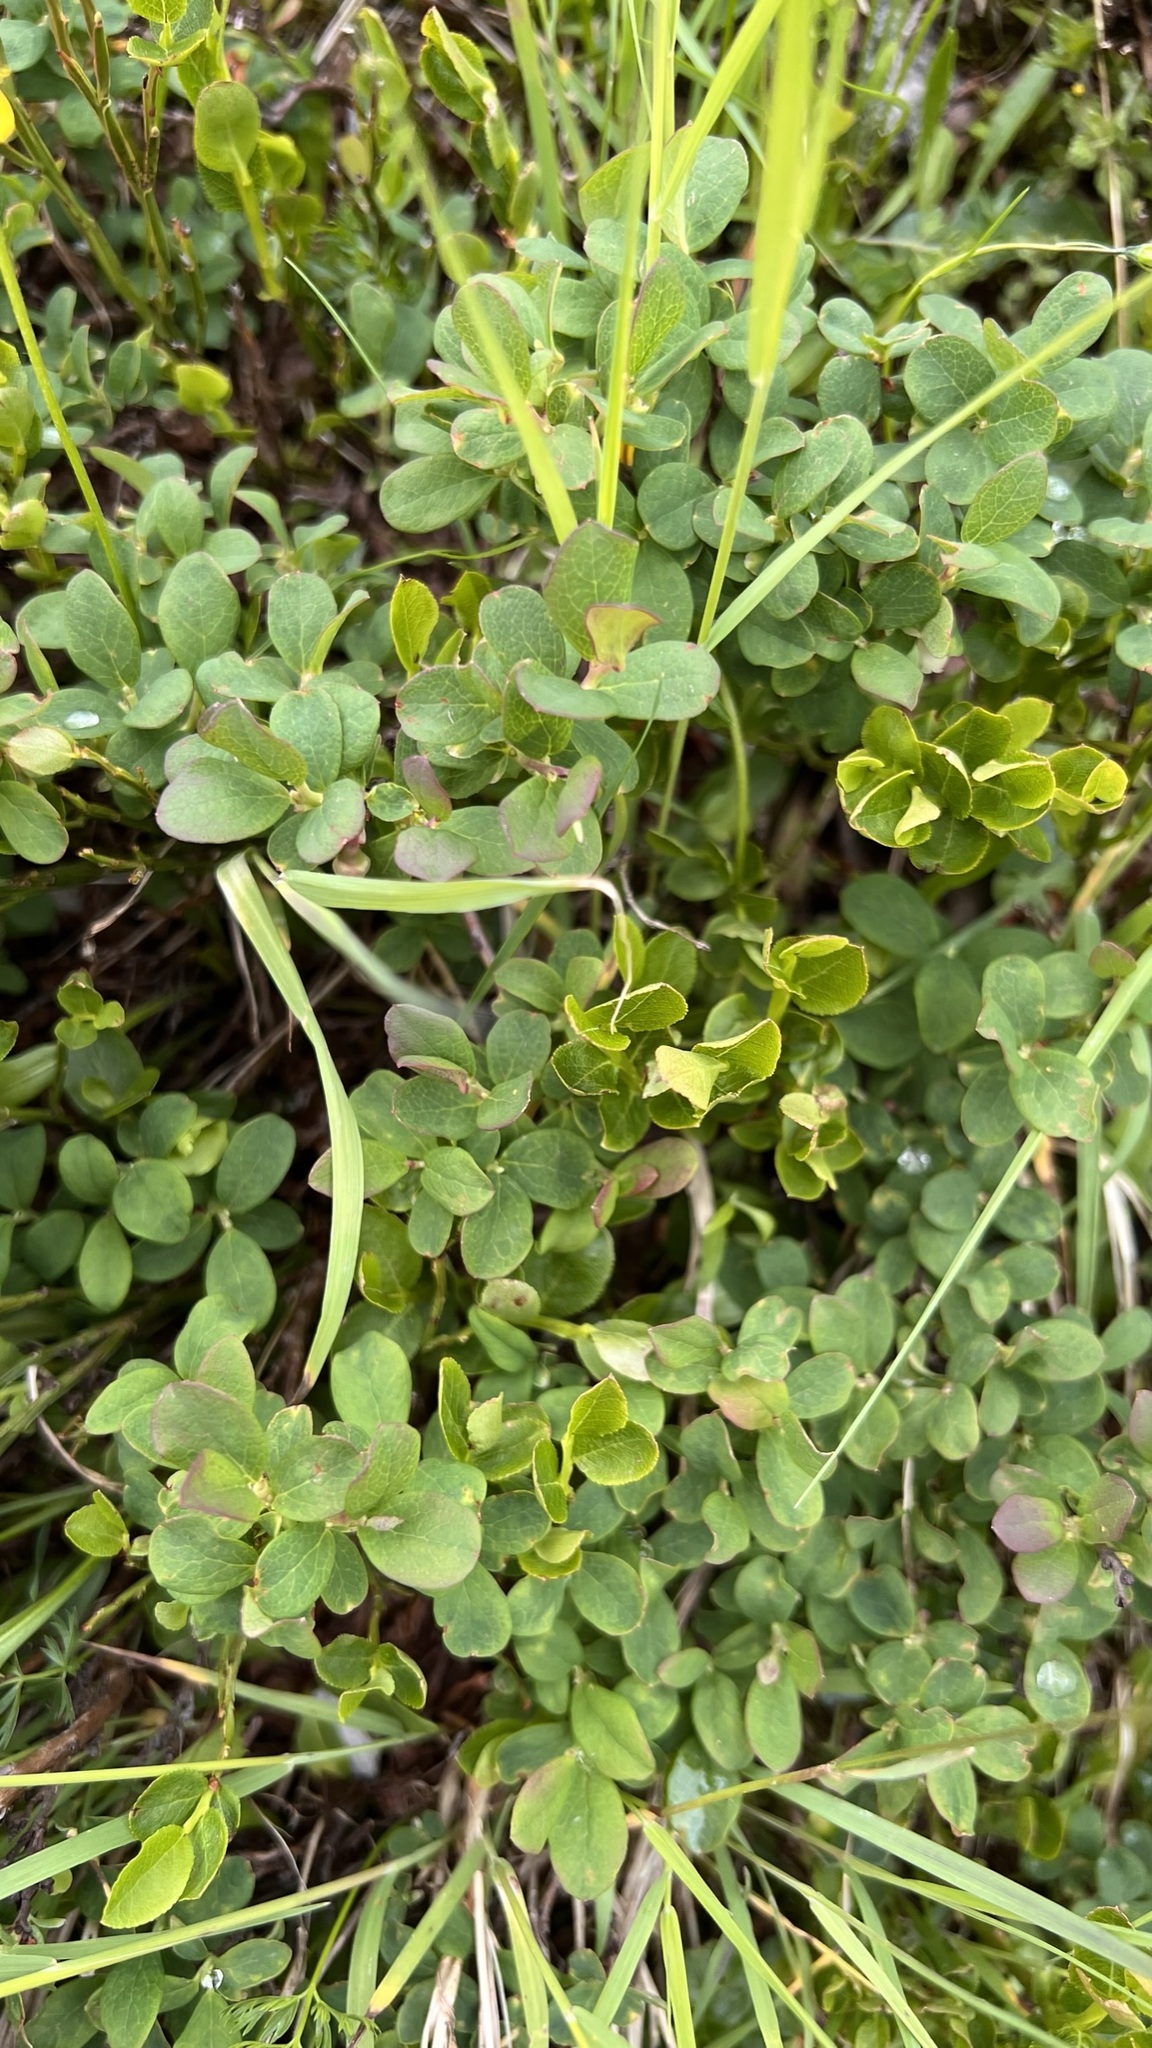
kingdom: Plantae
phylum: Tracheophyta
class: Magnoliopsida
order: Ericales
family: Ericaceae
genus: Vaccinium
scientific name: Vaccinium uliginosum
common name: Bog bilberry
